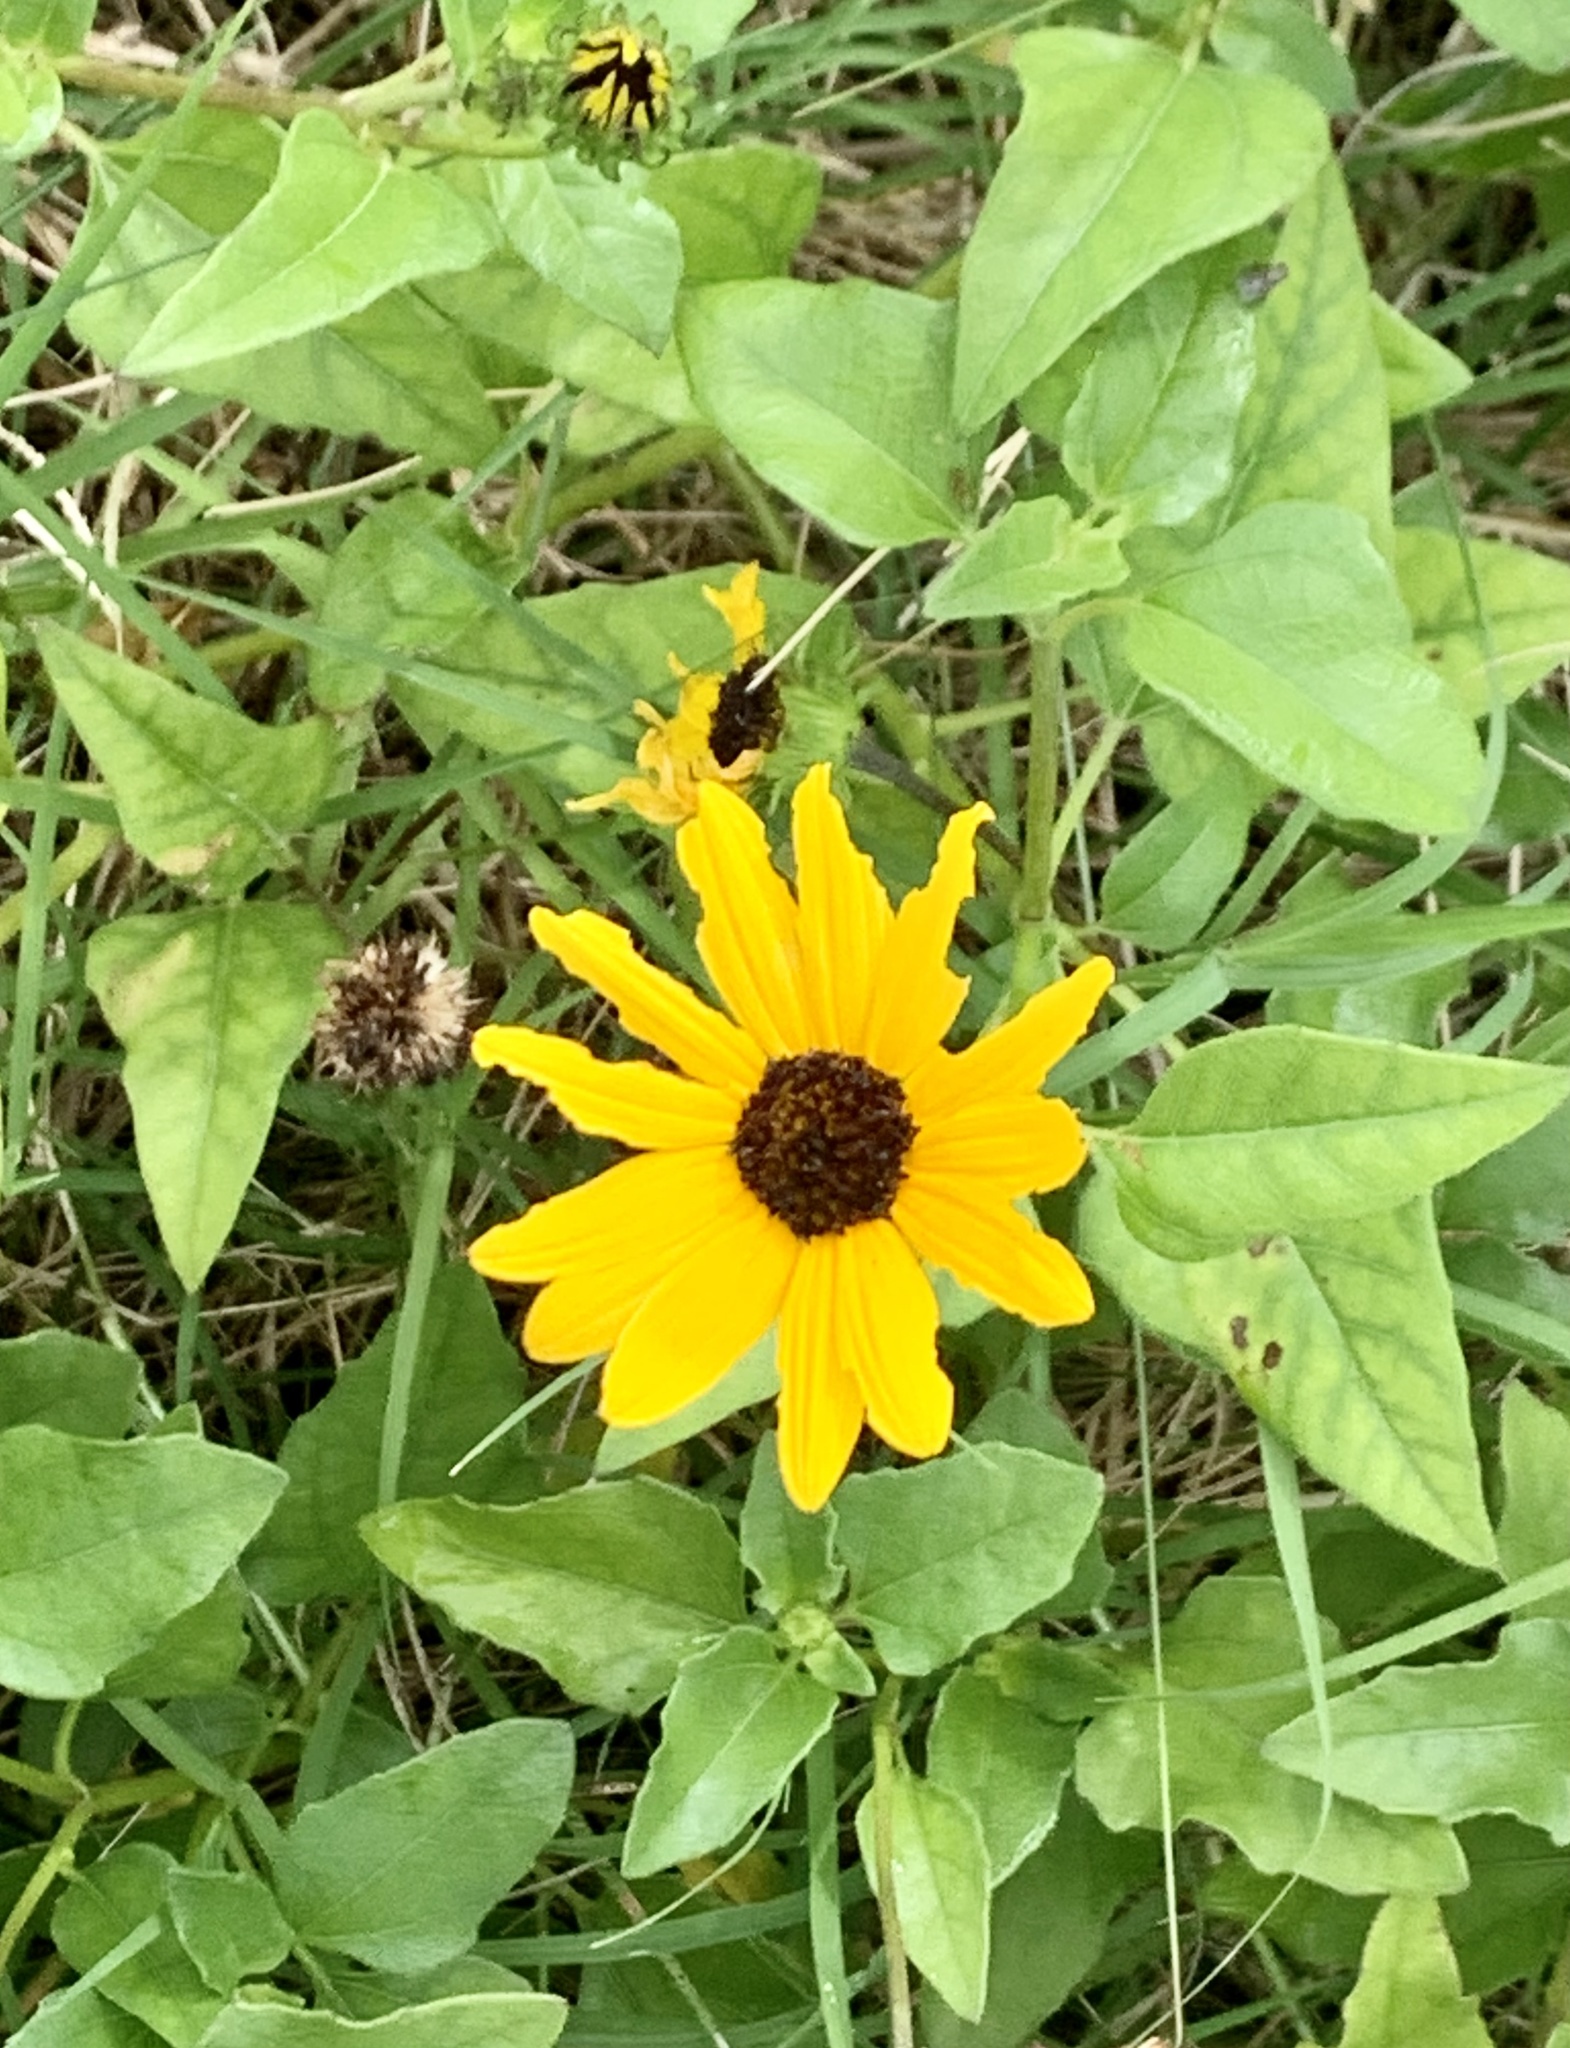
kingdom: Plantae
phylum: Tracheophyta
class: Magnoliopsida
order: Asterales
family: Asteraceae
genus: Helianthus
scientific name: Helianthus debilis
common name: Weak sunflower
